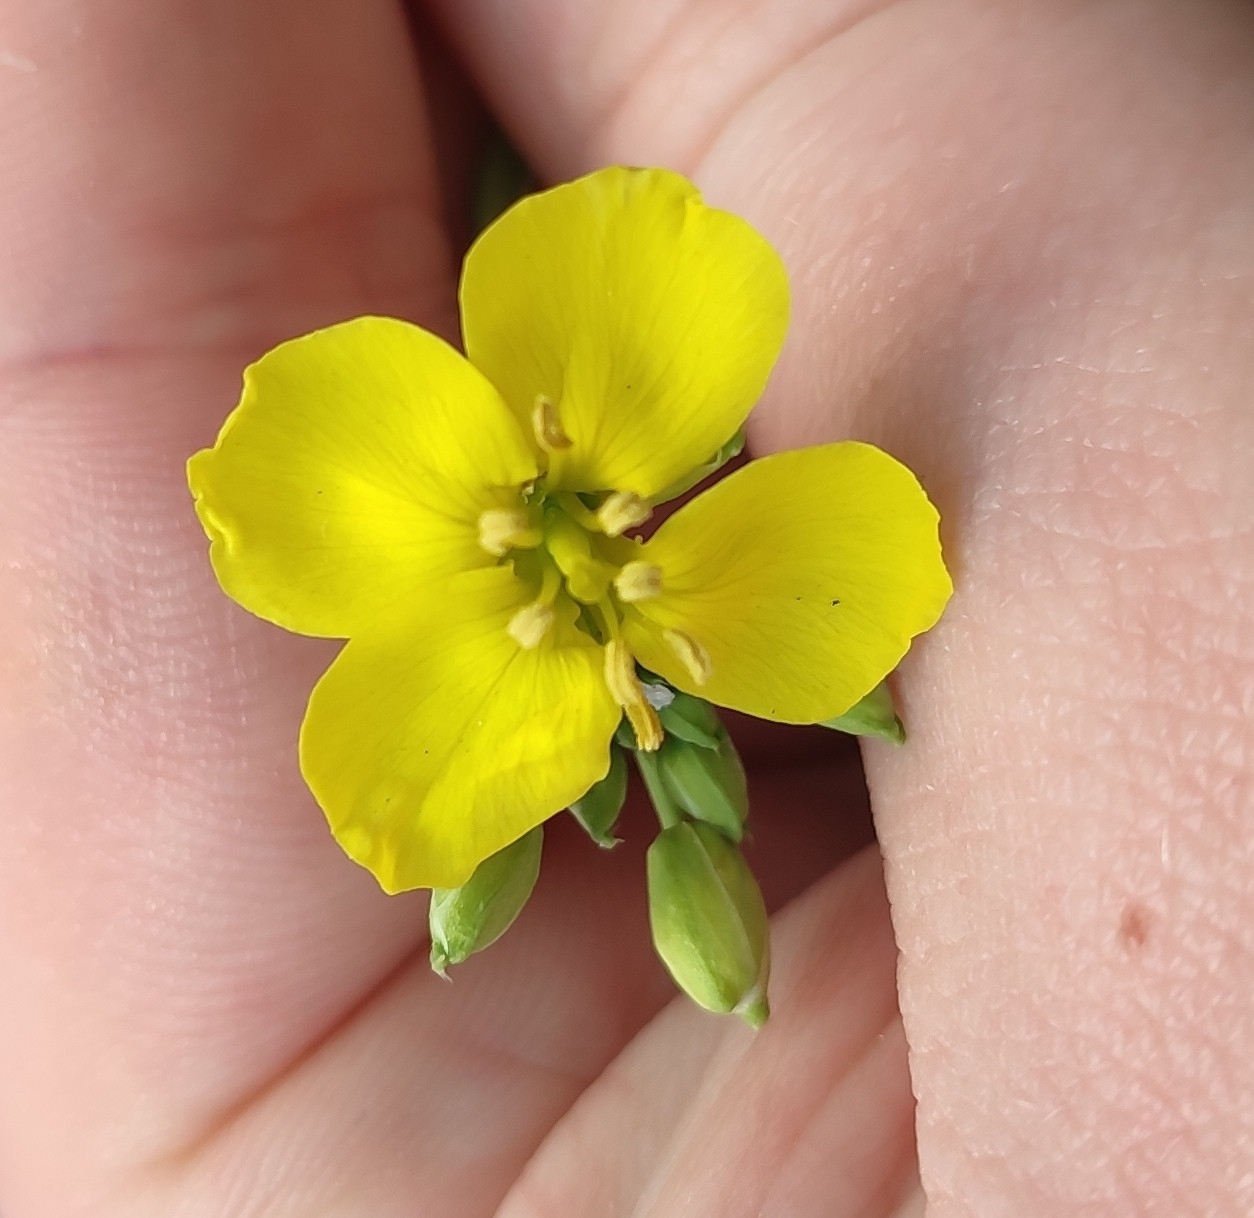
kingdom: Plantae
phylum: Tracheophyta
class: Magnoliopsida
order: Brassicales
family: Brassicaceae
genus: Diplotaxis
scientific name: Diplotaxis tenuifolia
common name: Perennial wall-rocket
